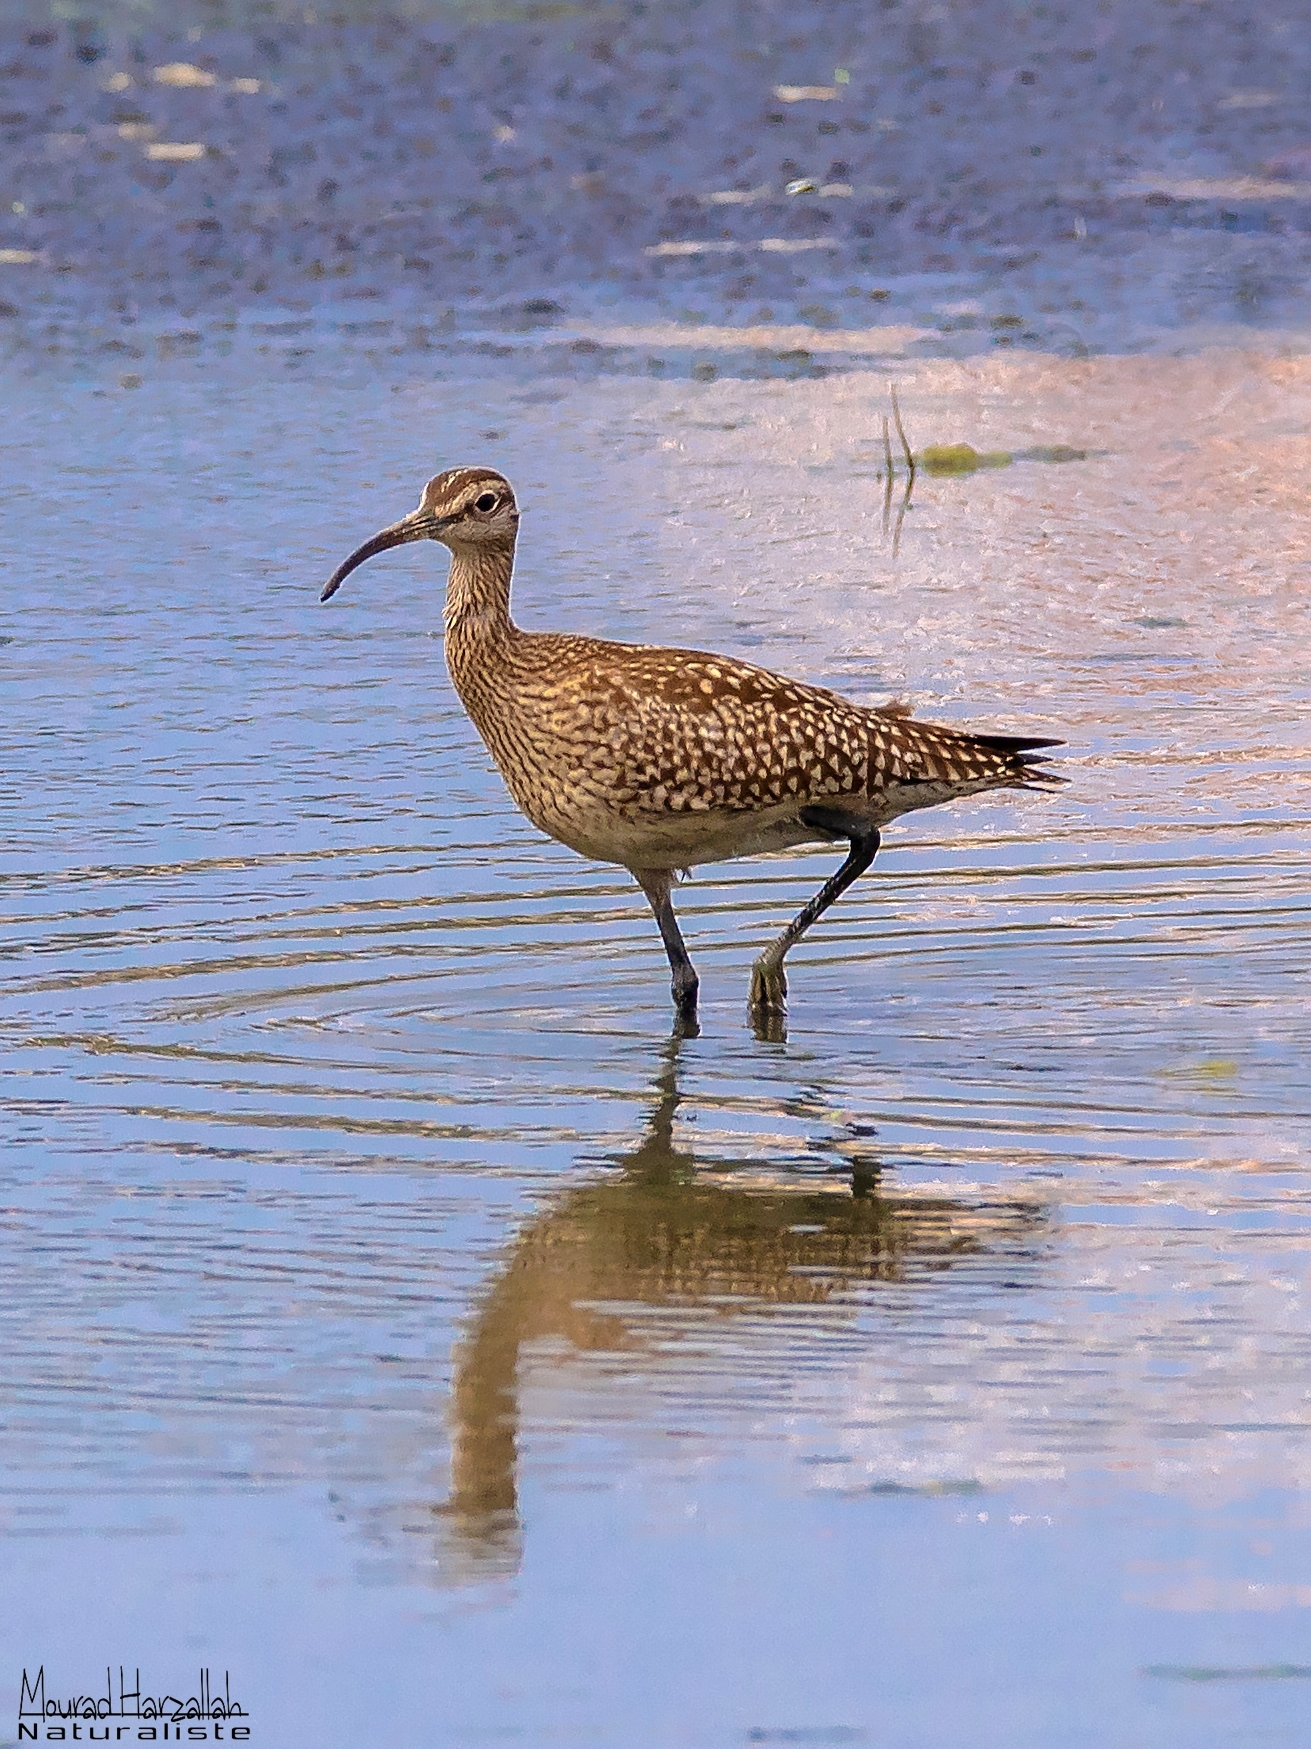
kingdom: Animalia
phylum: Chordata
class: Aves
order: Charadriiformes
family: Scolopacidae
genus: Numenius
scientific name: Numenius phaeopus
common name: Whimbrel
